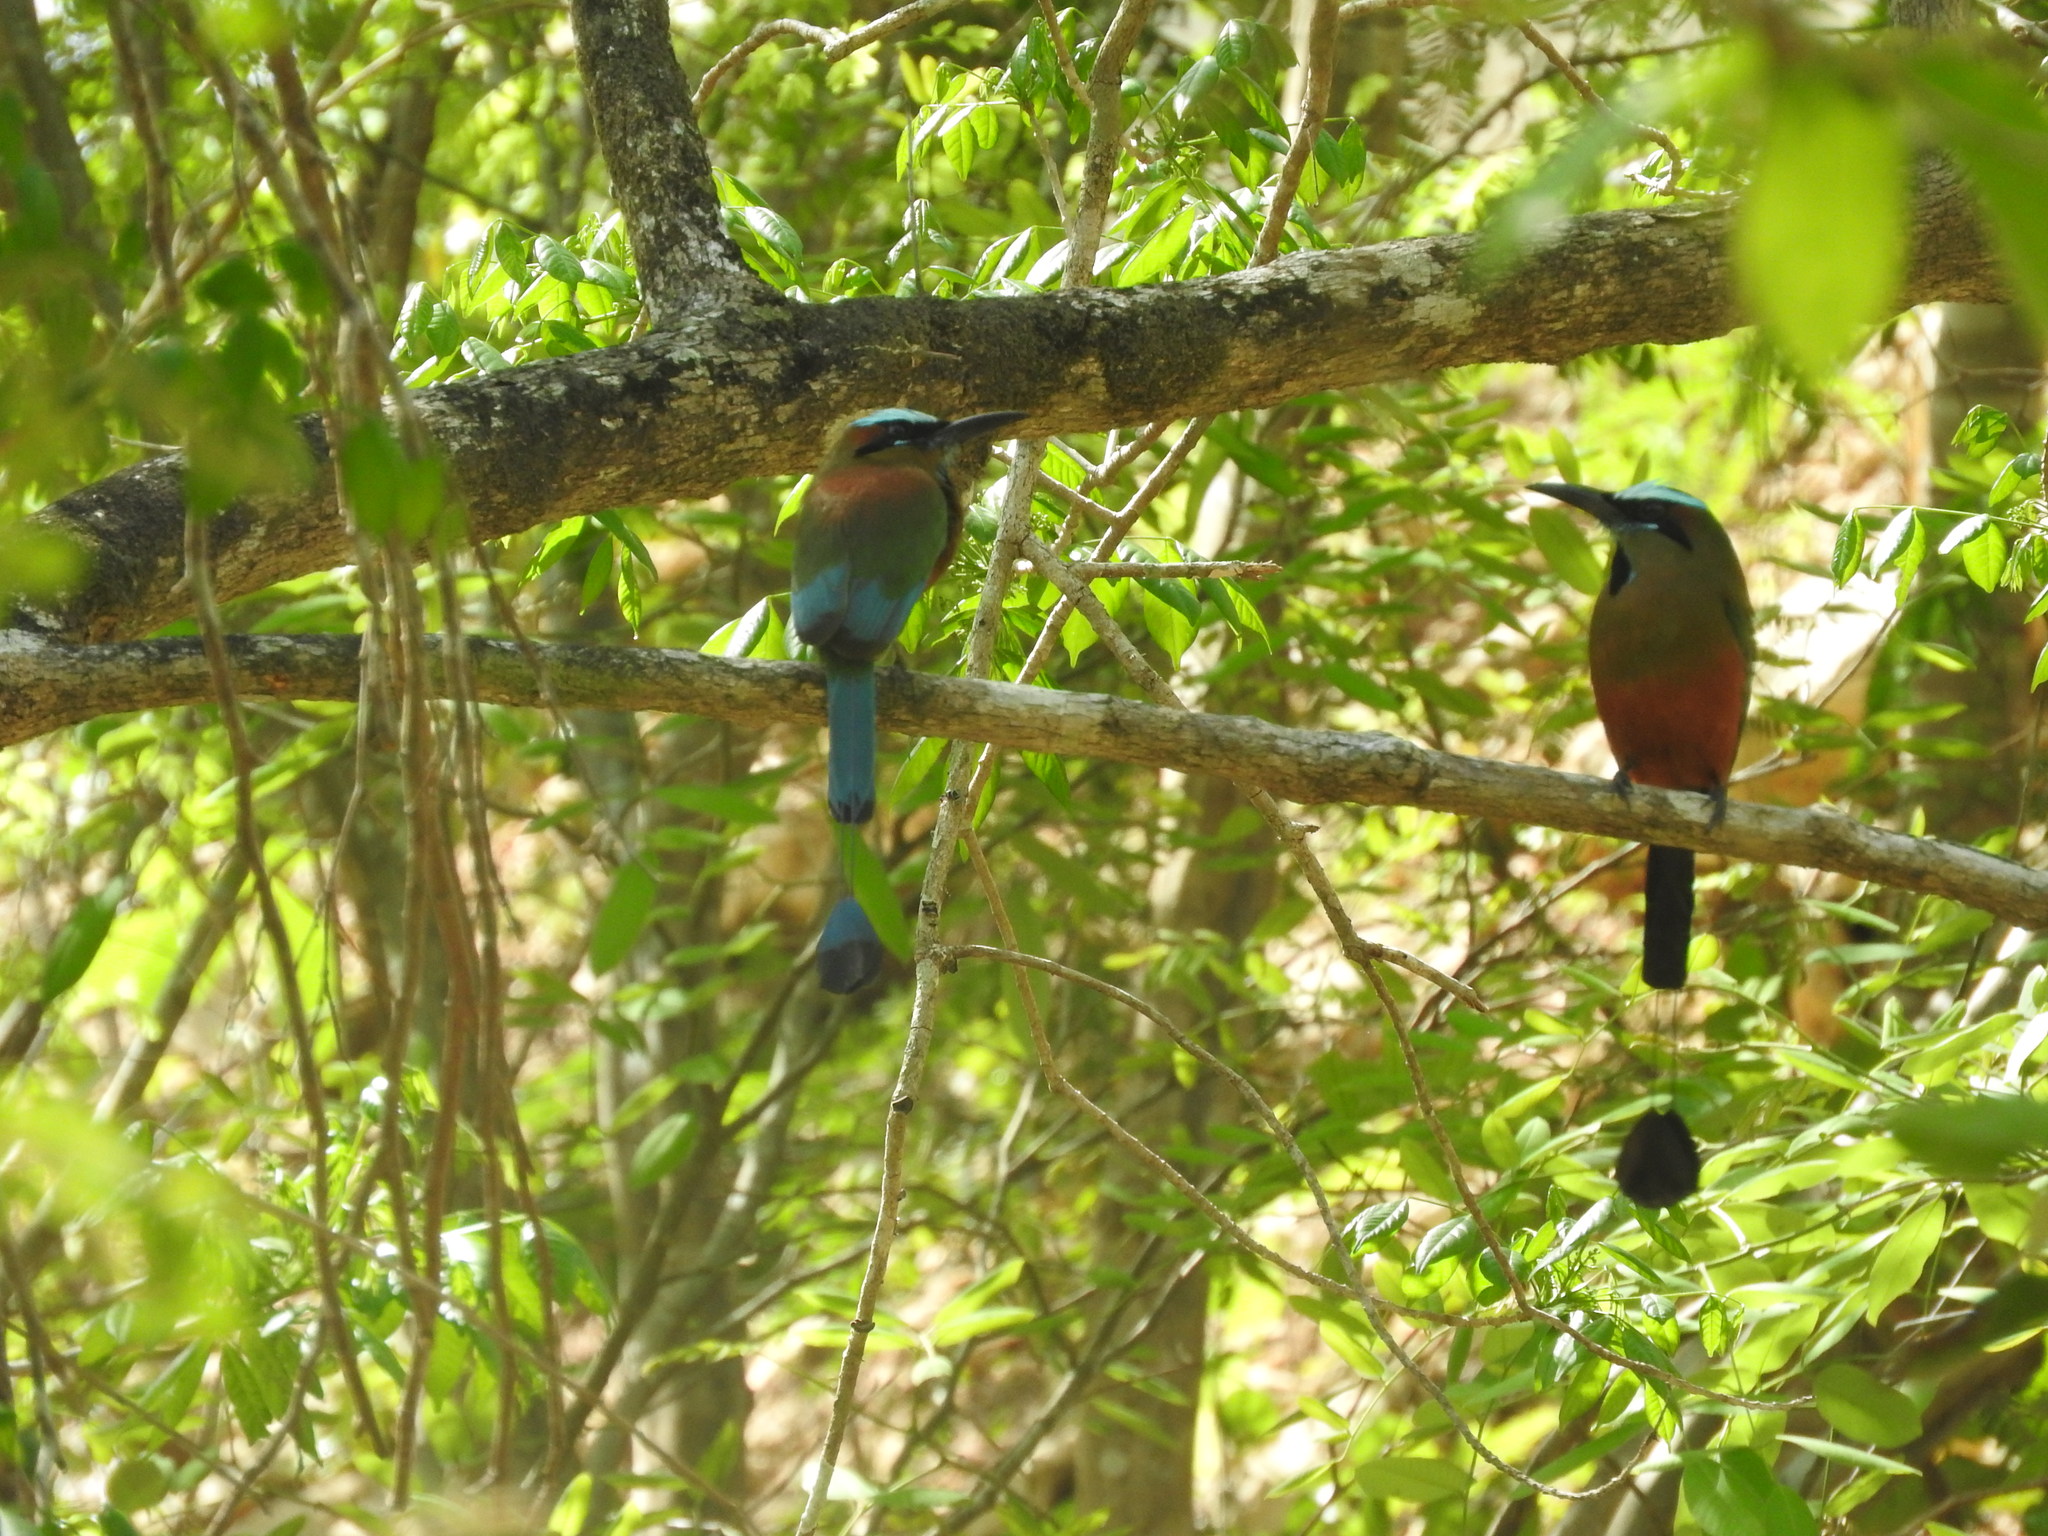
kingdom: Animalia
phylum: Chordata
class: Aves
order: Coraciiformes
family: Momotidae
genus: Eumomota
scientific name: Eumomota superciliosa
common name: Turquoise-browed motmot
